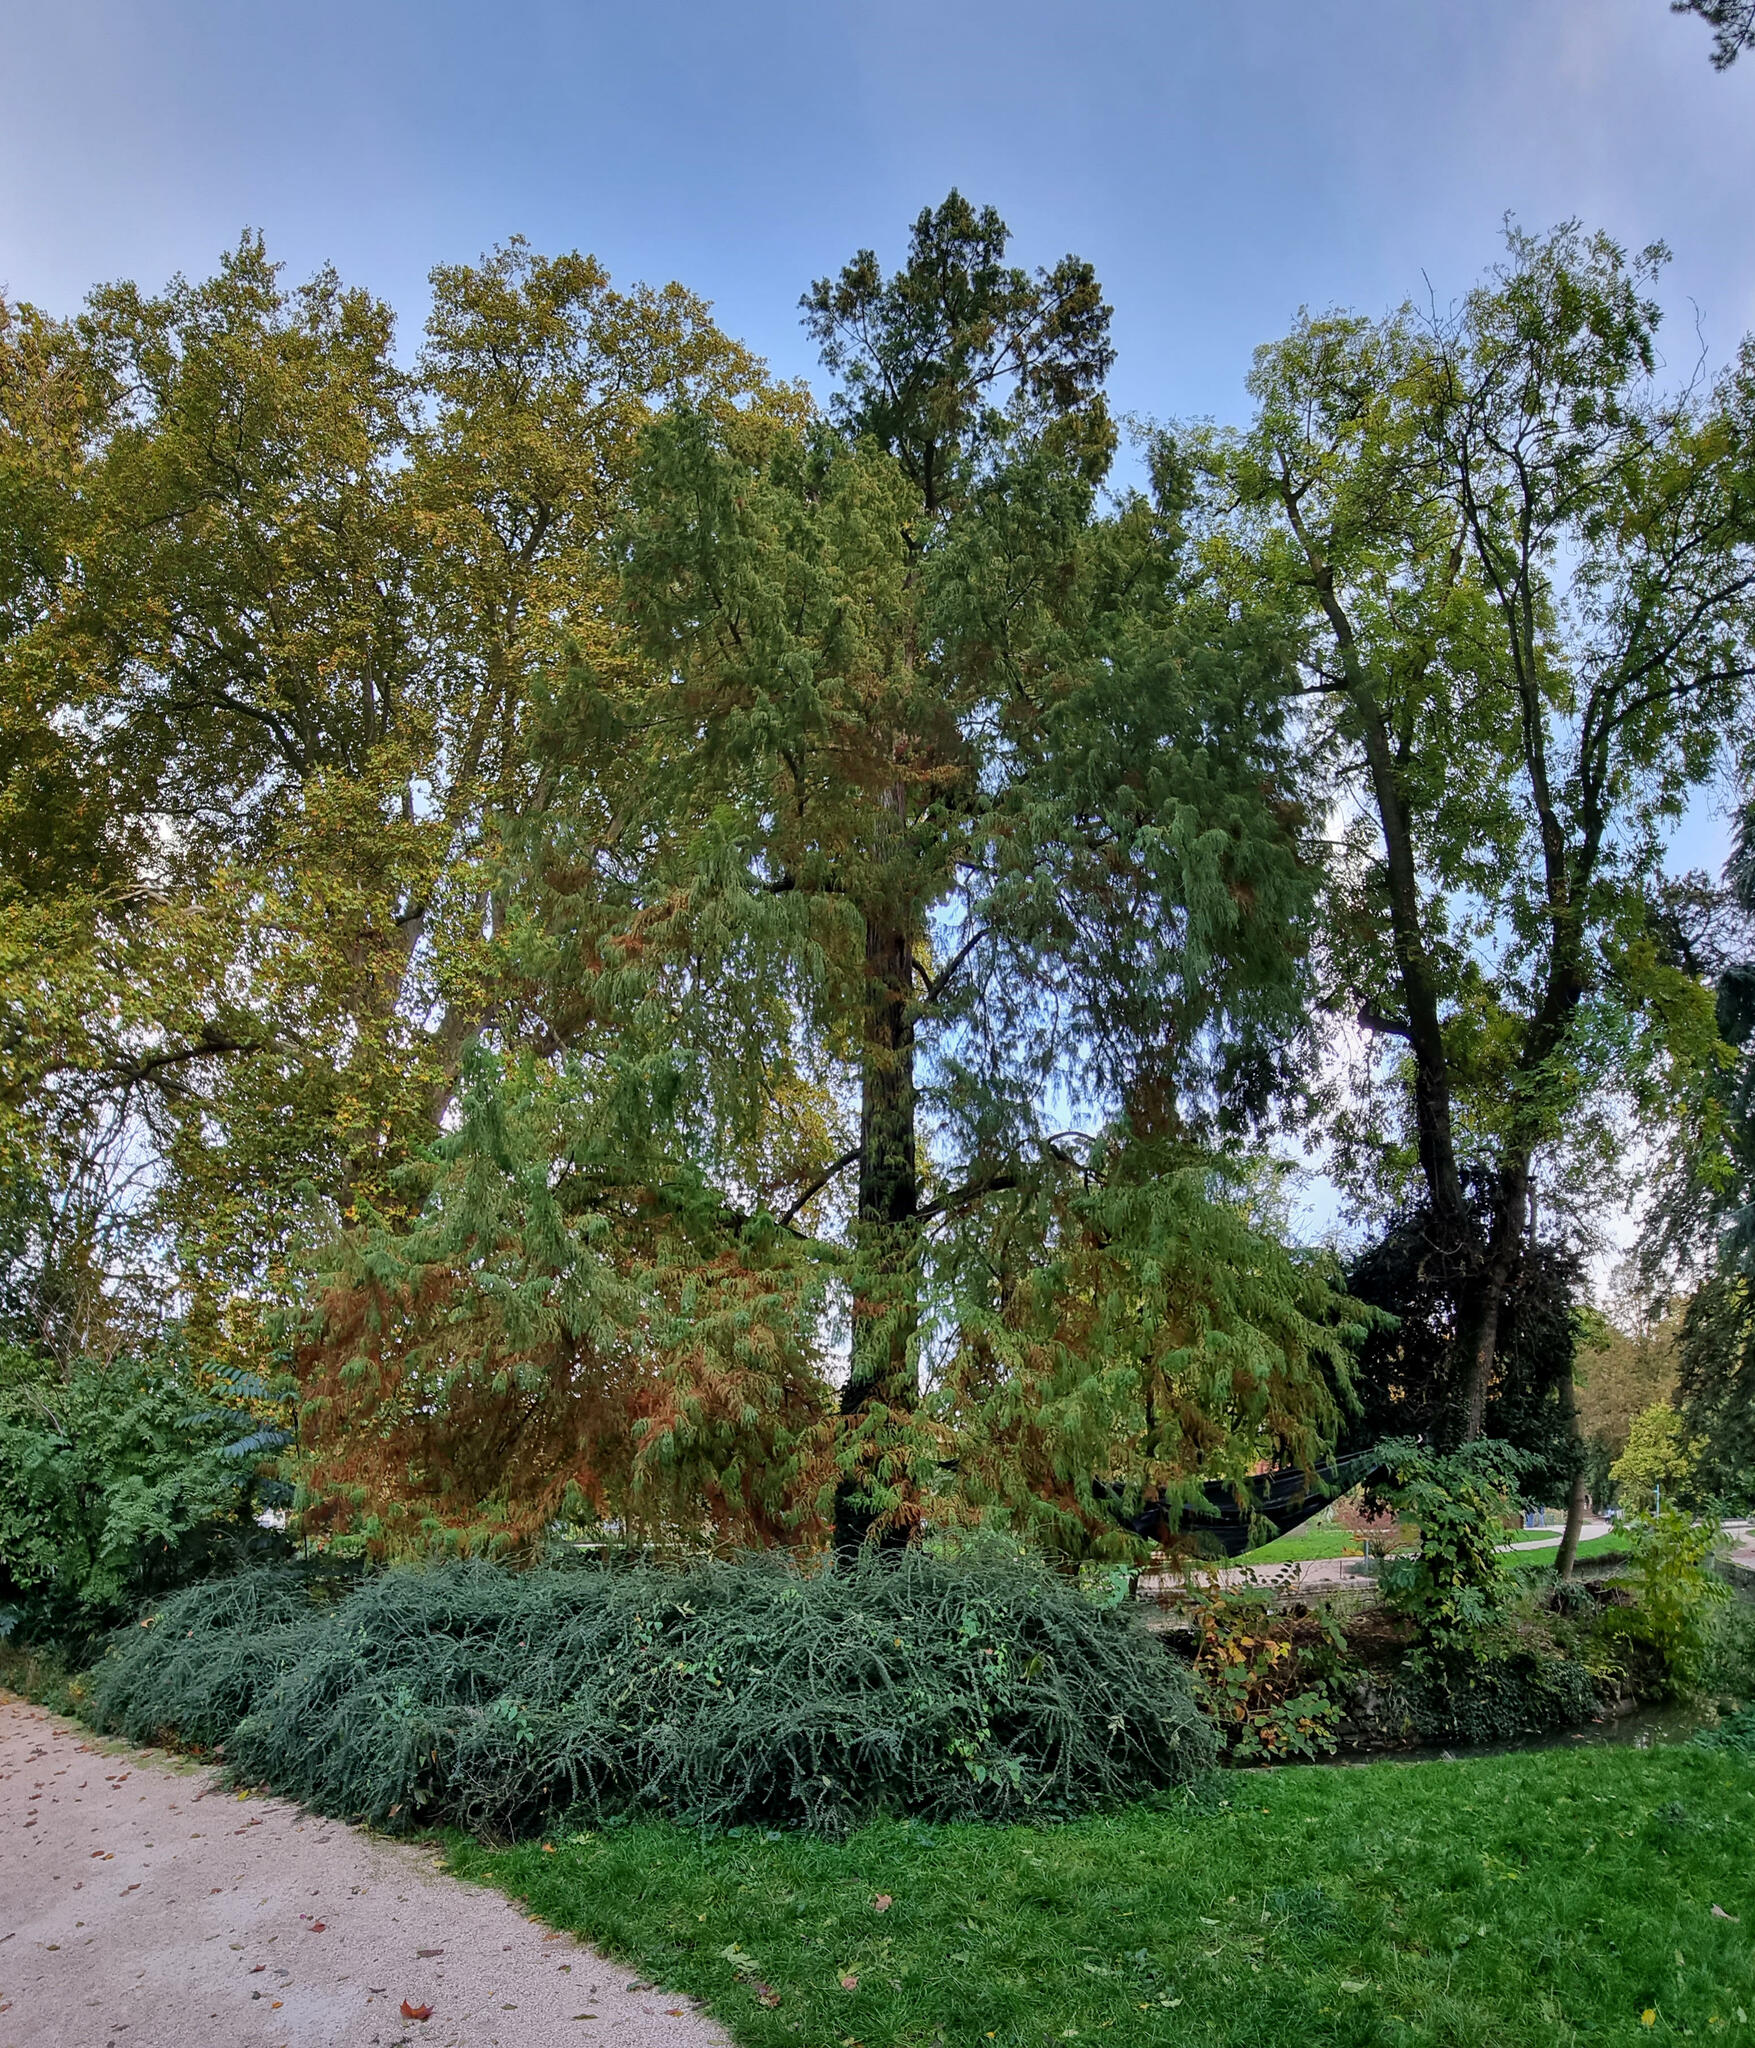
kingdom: Plantae
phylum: Tracheophyta
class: Pinopsida
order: Pinales
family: Cupressaceae
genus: Taxodium
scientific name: Taxodium distichum
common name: Bald cypress
